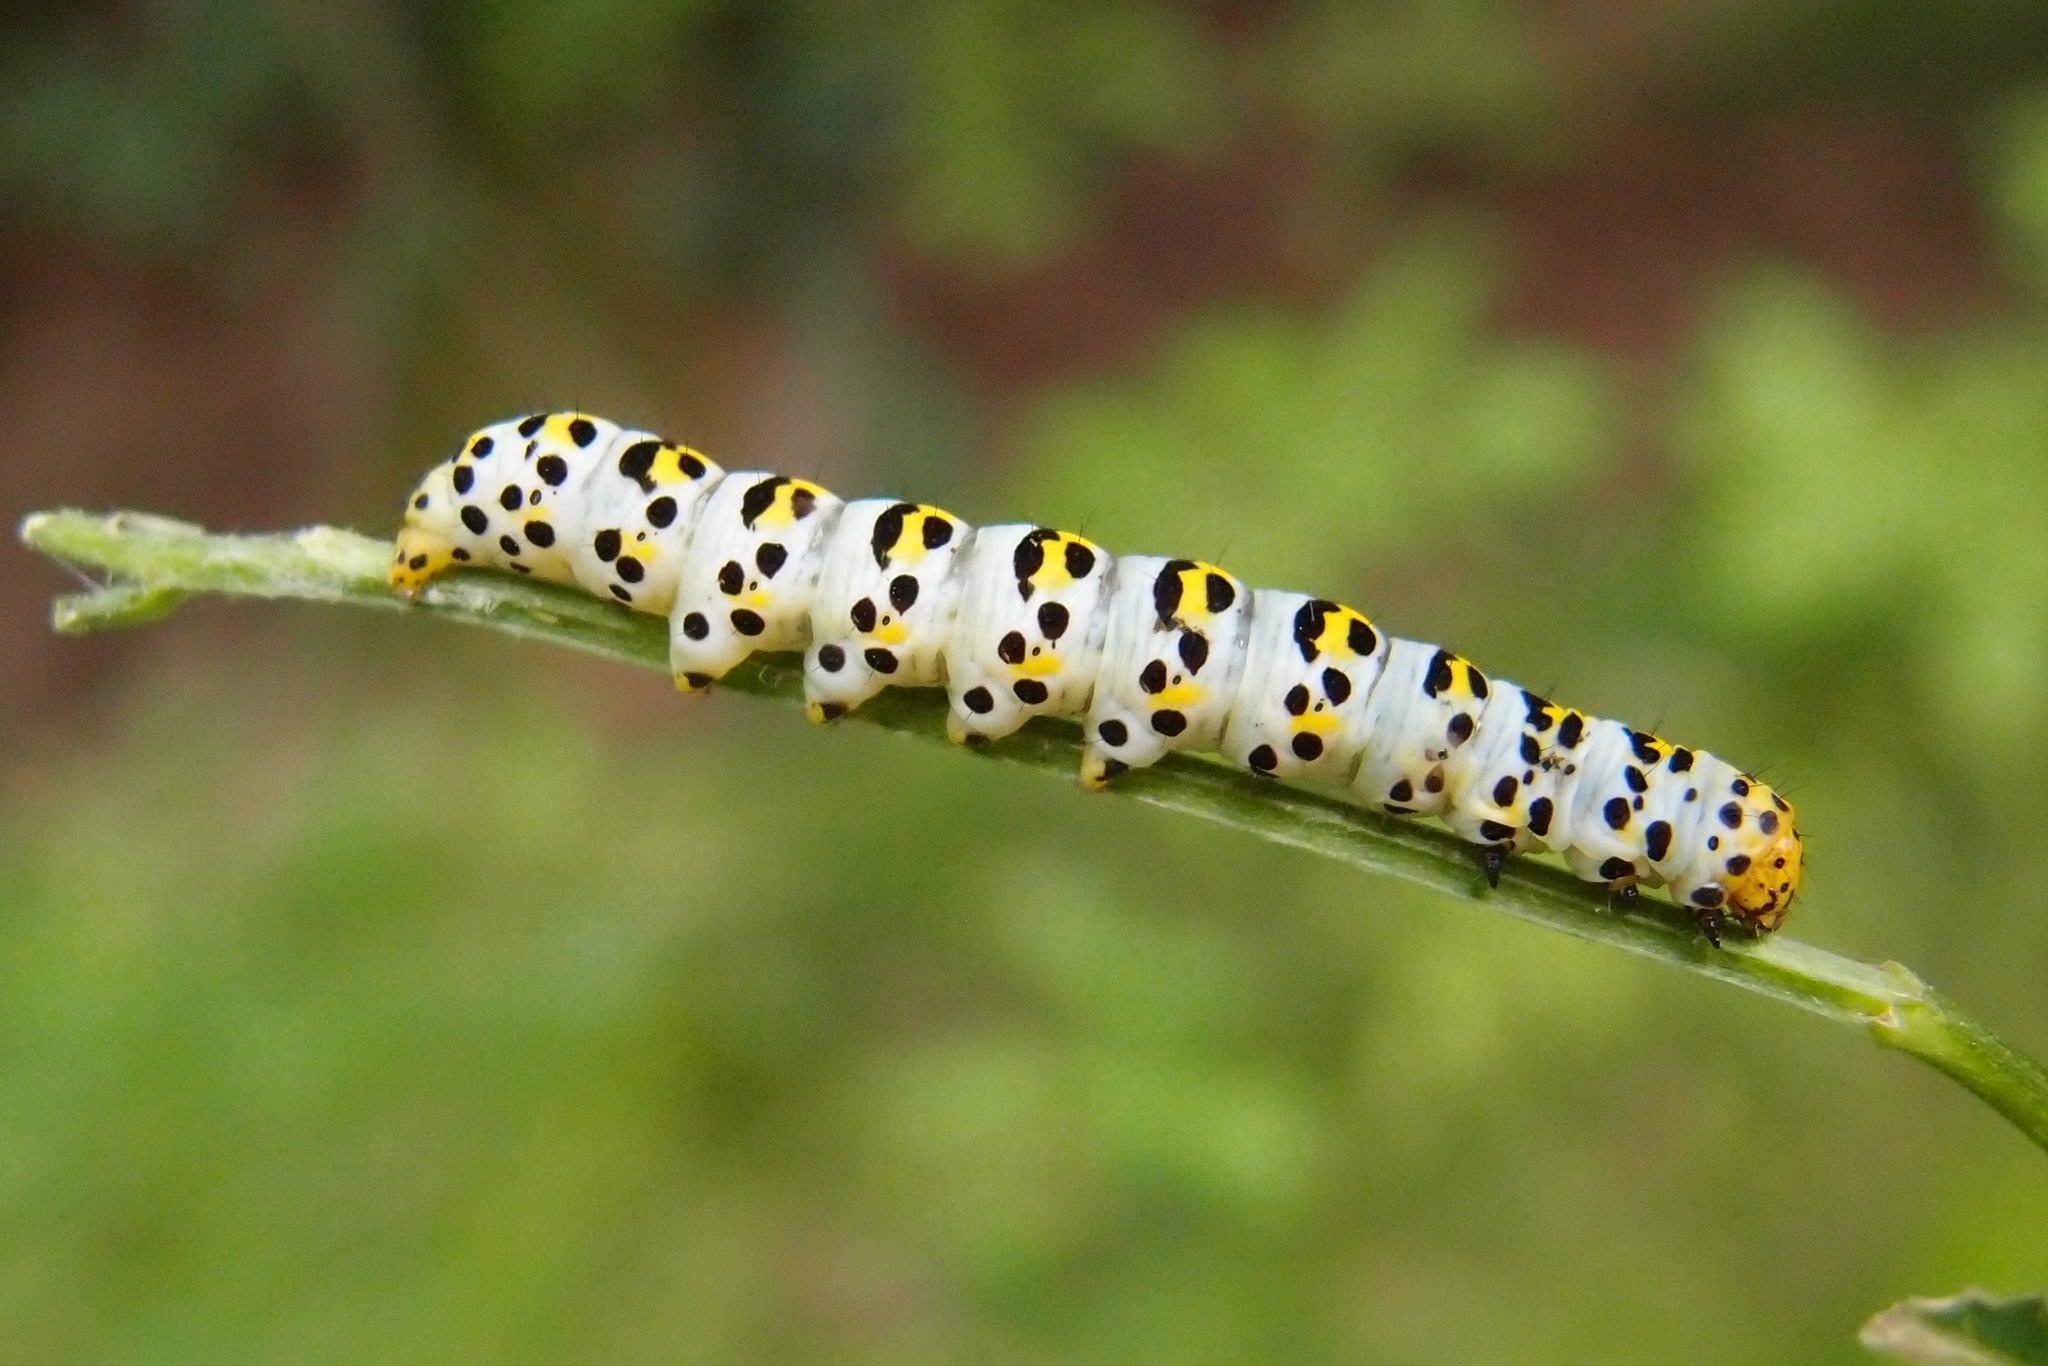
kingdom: Animalia
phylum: Arthropoda
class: Insecta
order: Lepidoptera
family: Noctuidae
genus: Shargacucullia
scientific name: Shargacucullia scrophulariae
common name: Water betony
